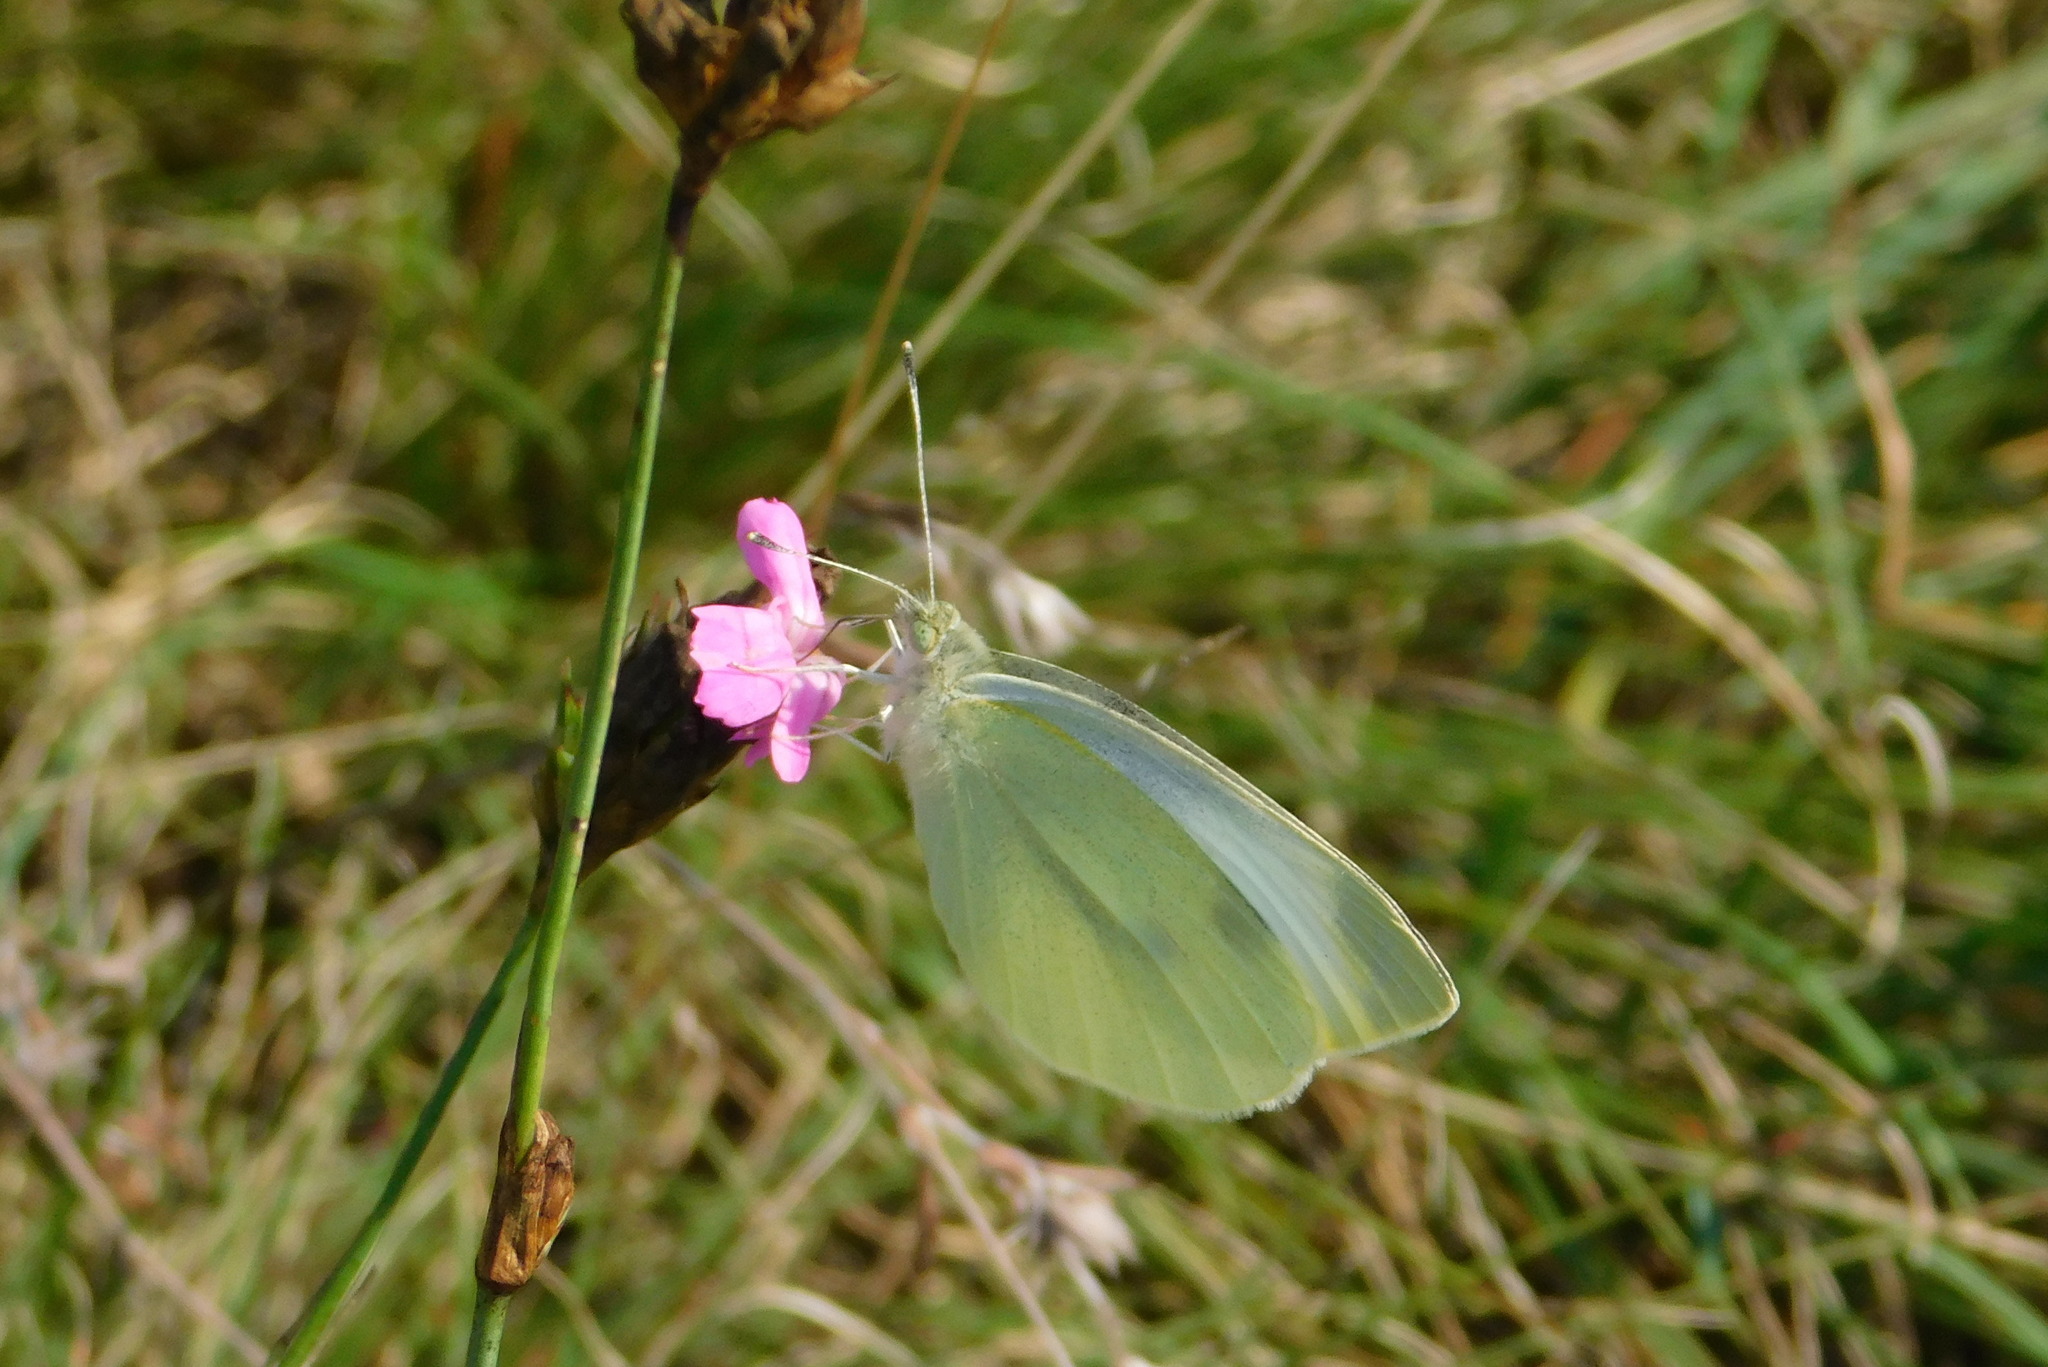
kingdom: Animalia
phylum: Arthropoda
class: Insecta
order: Lepidoptera
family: Pieridae
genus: Pieris
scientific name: Pieris rapae
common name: Small white
